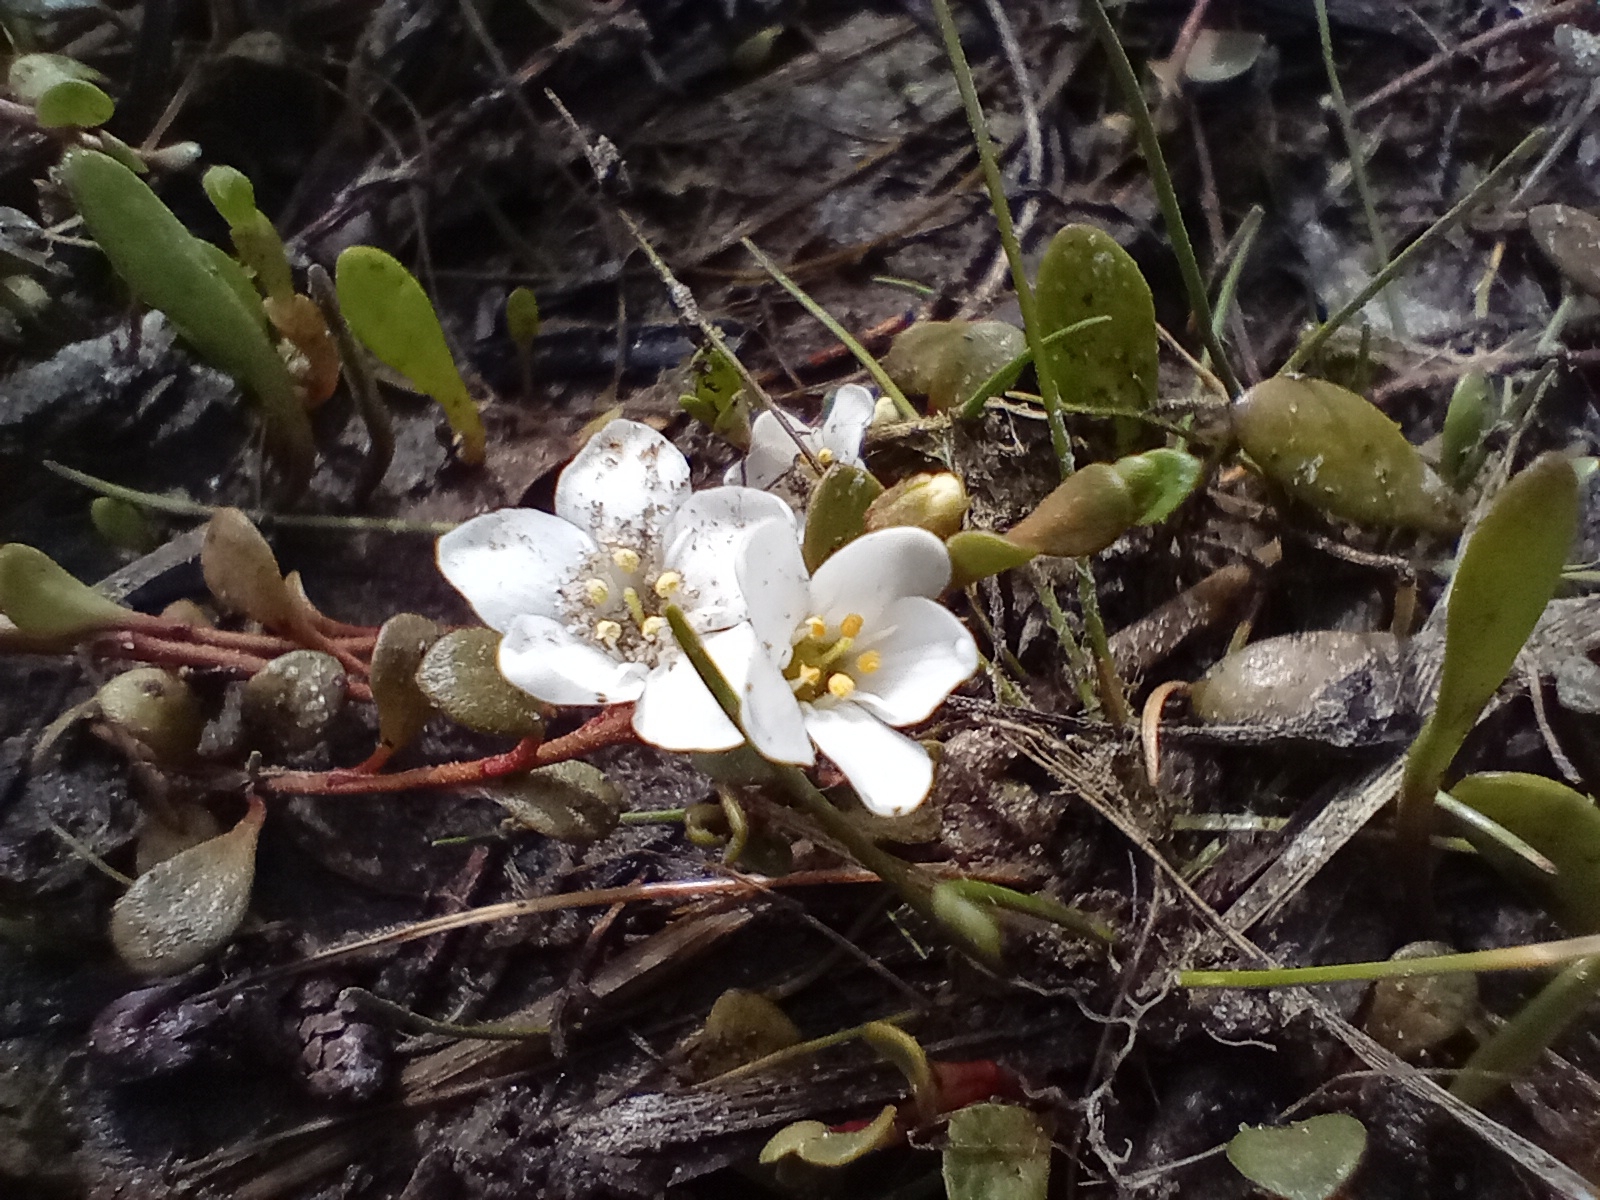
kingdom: Plantae
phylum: Tracheophyta
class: Magnoliopsida
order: Ericales
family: Primulaceae
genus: Samolus
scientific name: Samolus repens
